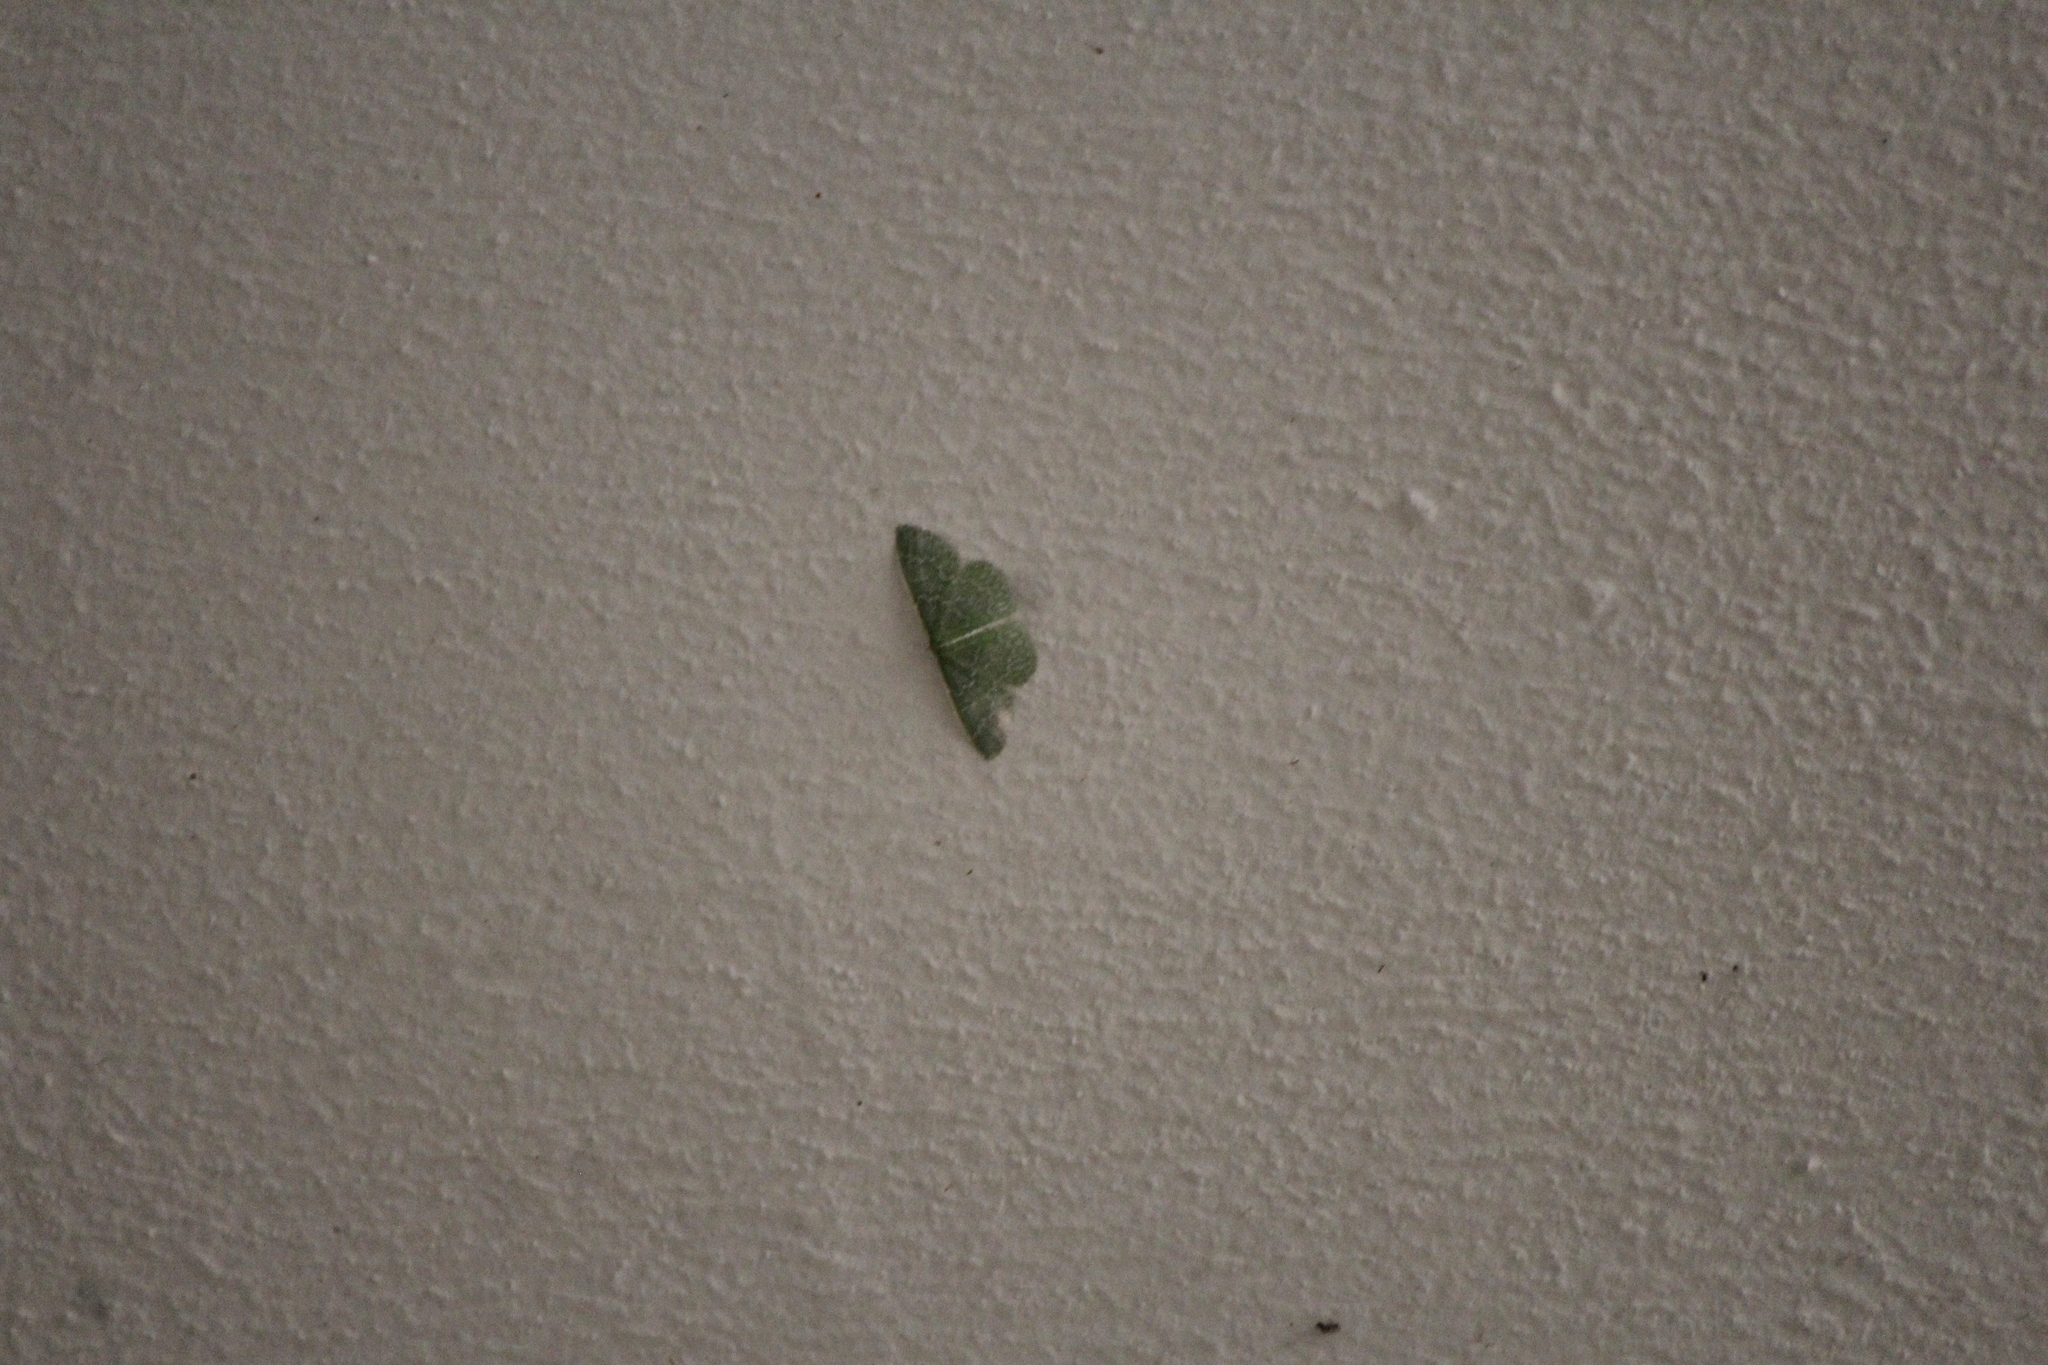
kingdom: Animalia
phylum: Arthropoda
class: Insecta
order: Lepidoptera
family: Geometridae
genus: Synchlora
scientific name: Synchlora frondaria
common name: Southern emerald
